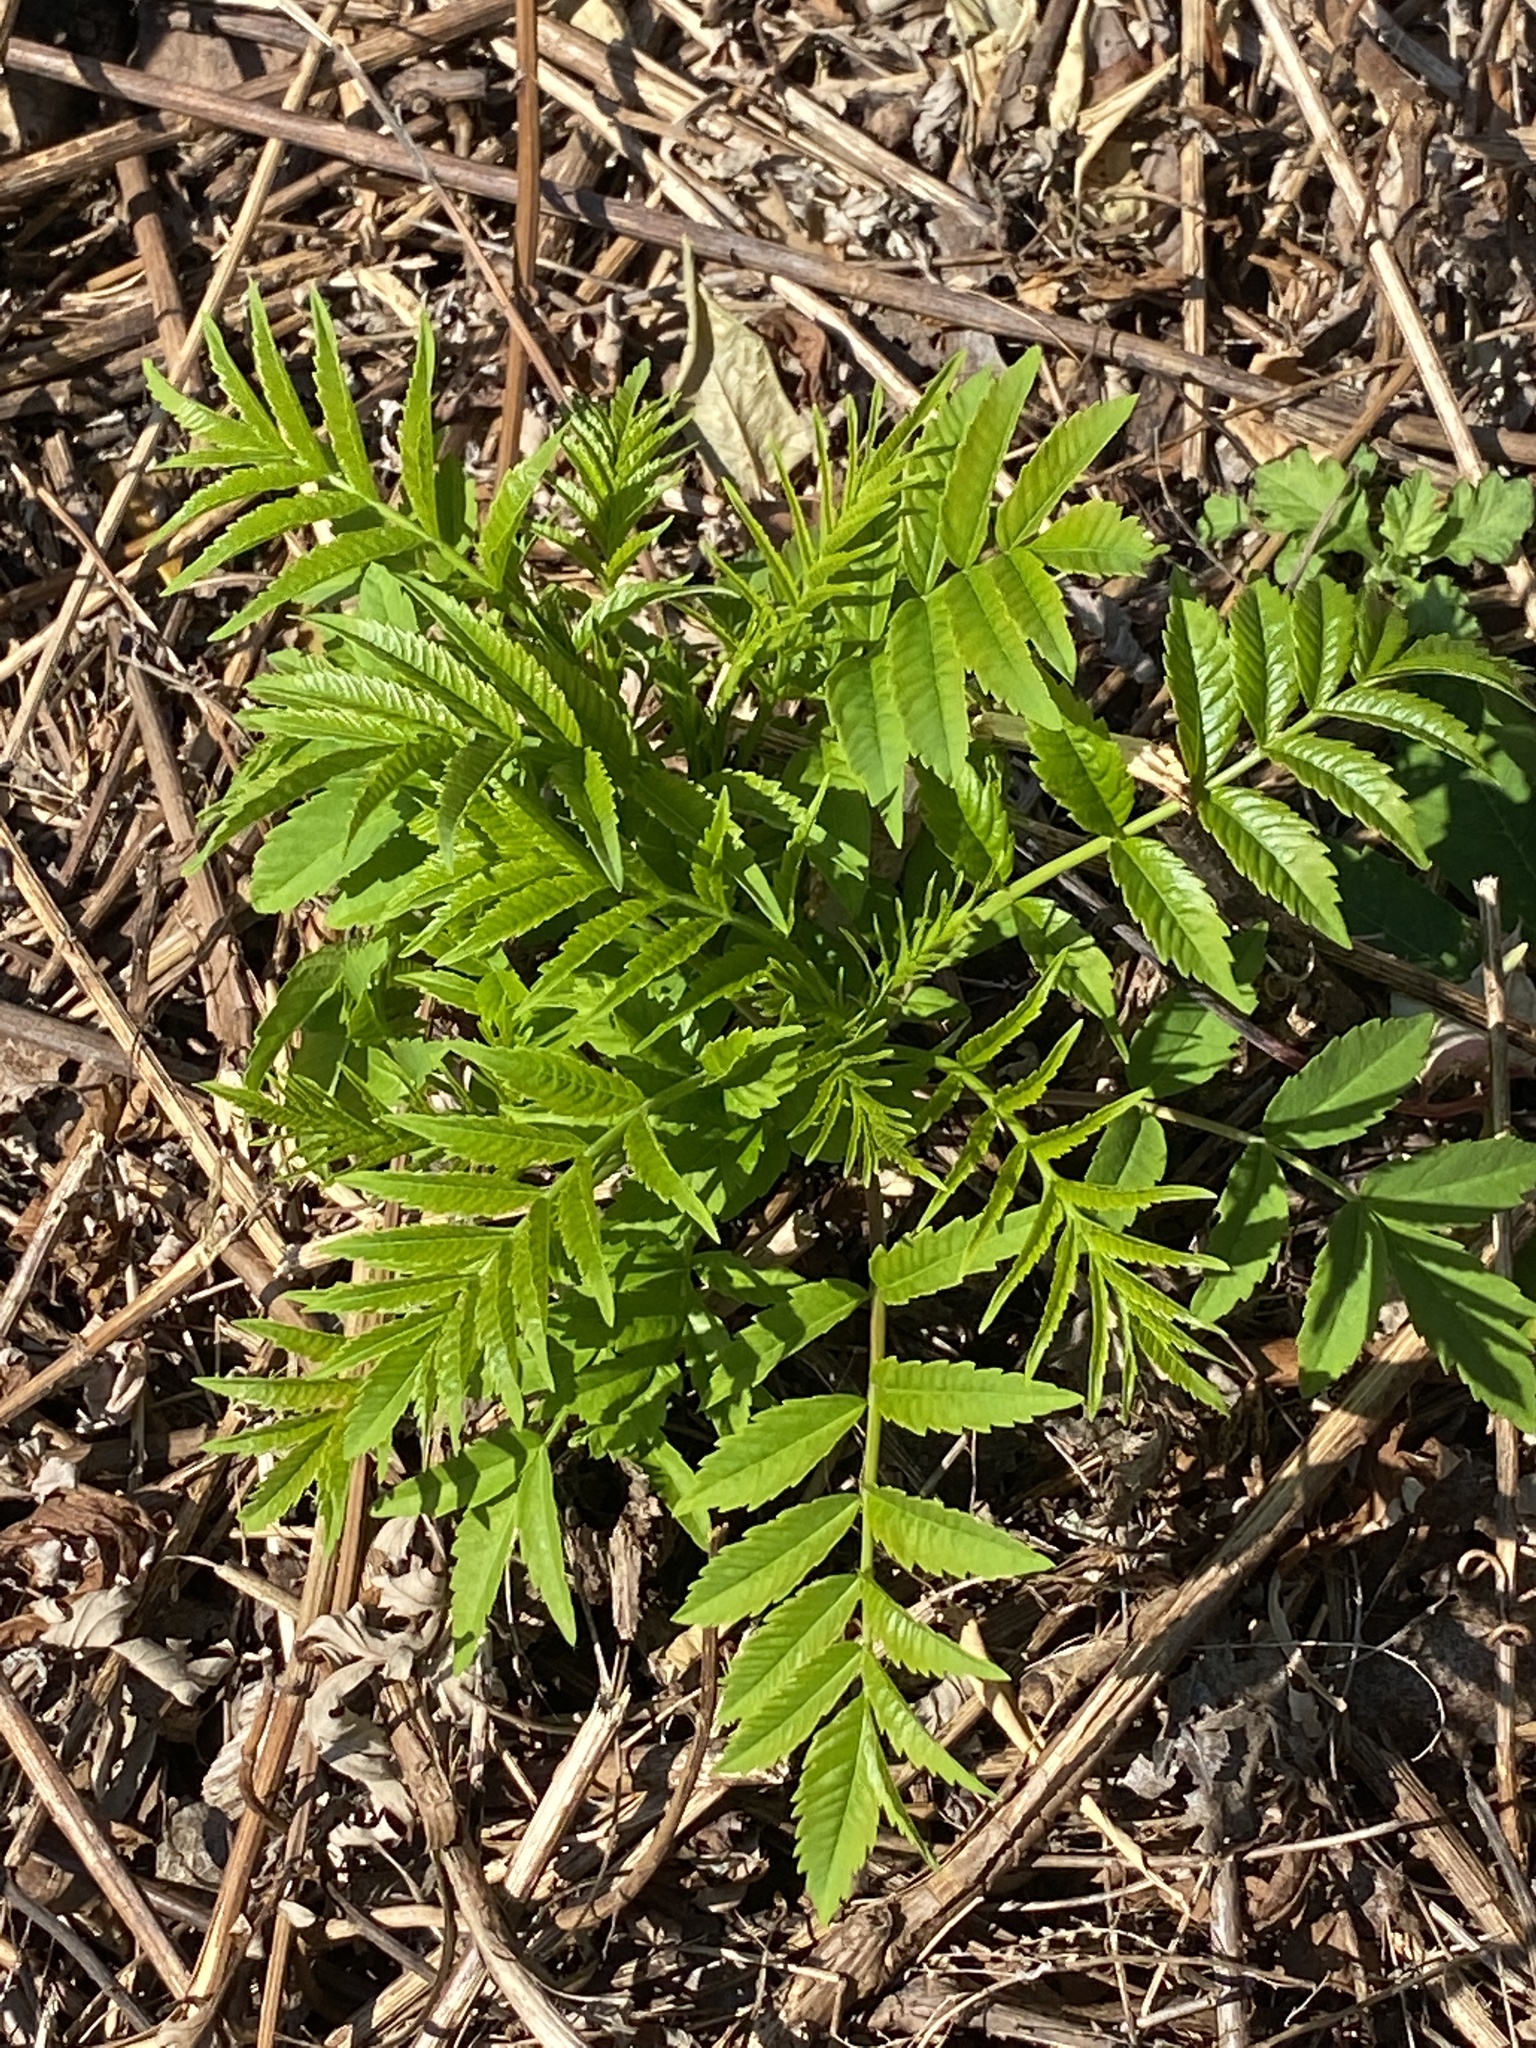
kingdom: Plantae
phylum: Tracheophyta
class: Magnoliopsida
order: Sapindales
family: Anacardiaceae
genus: Rhus
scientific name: Rhus glabra
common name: Scarlet sumac
